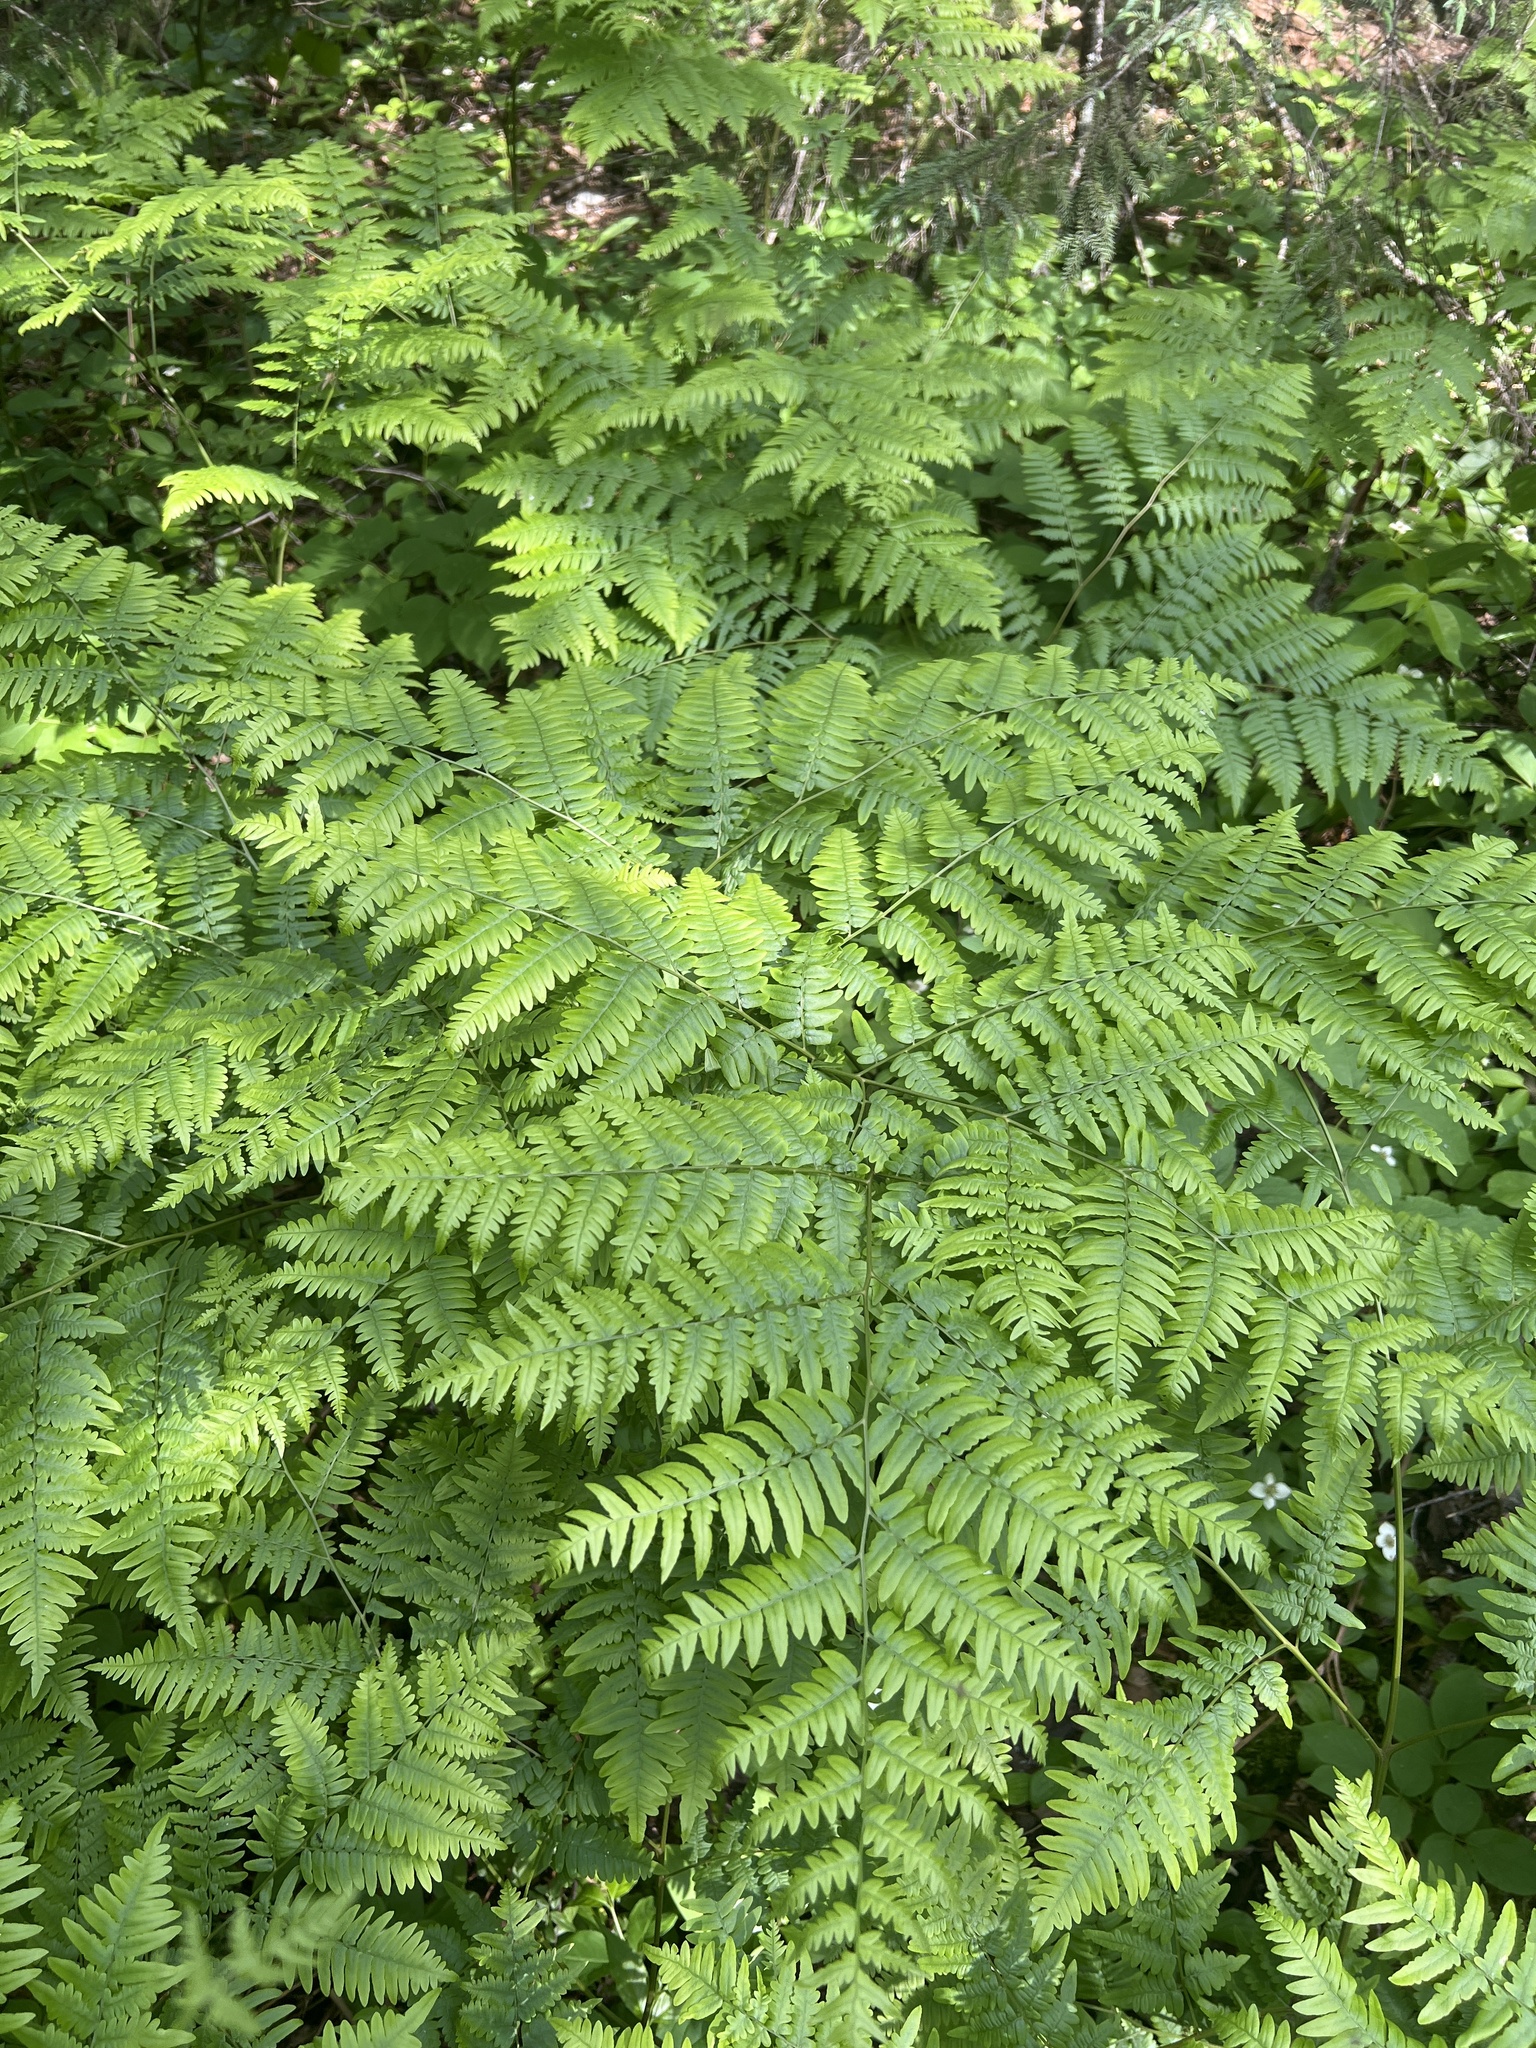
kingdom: Plantae
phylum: Tracheophyta
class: Polypodiopsida
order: Polypodiales
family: Dennstaedtiaceae
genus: Pteridium
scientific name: Pteridium aquilinum
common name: Bracken
